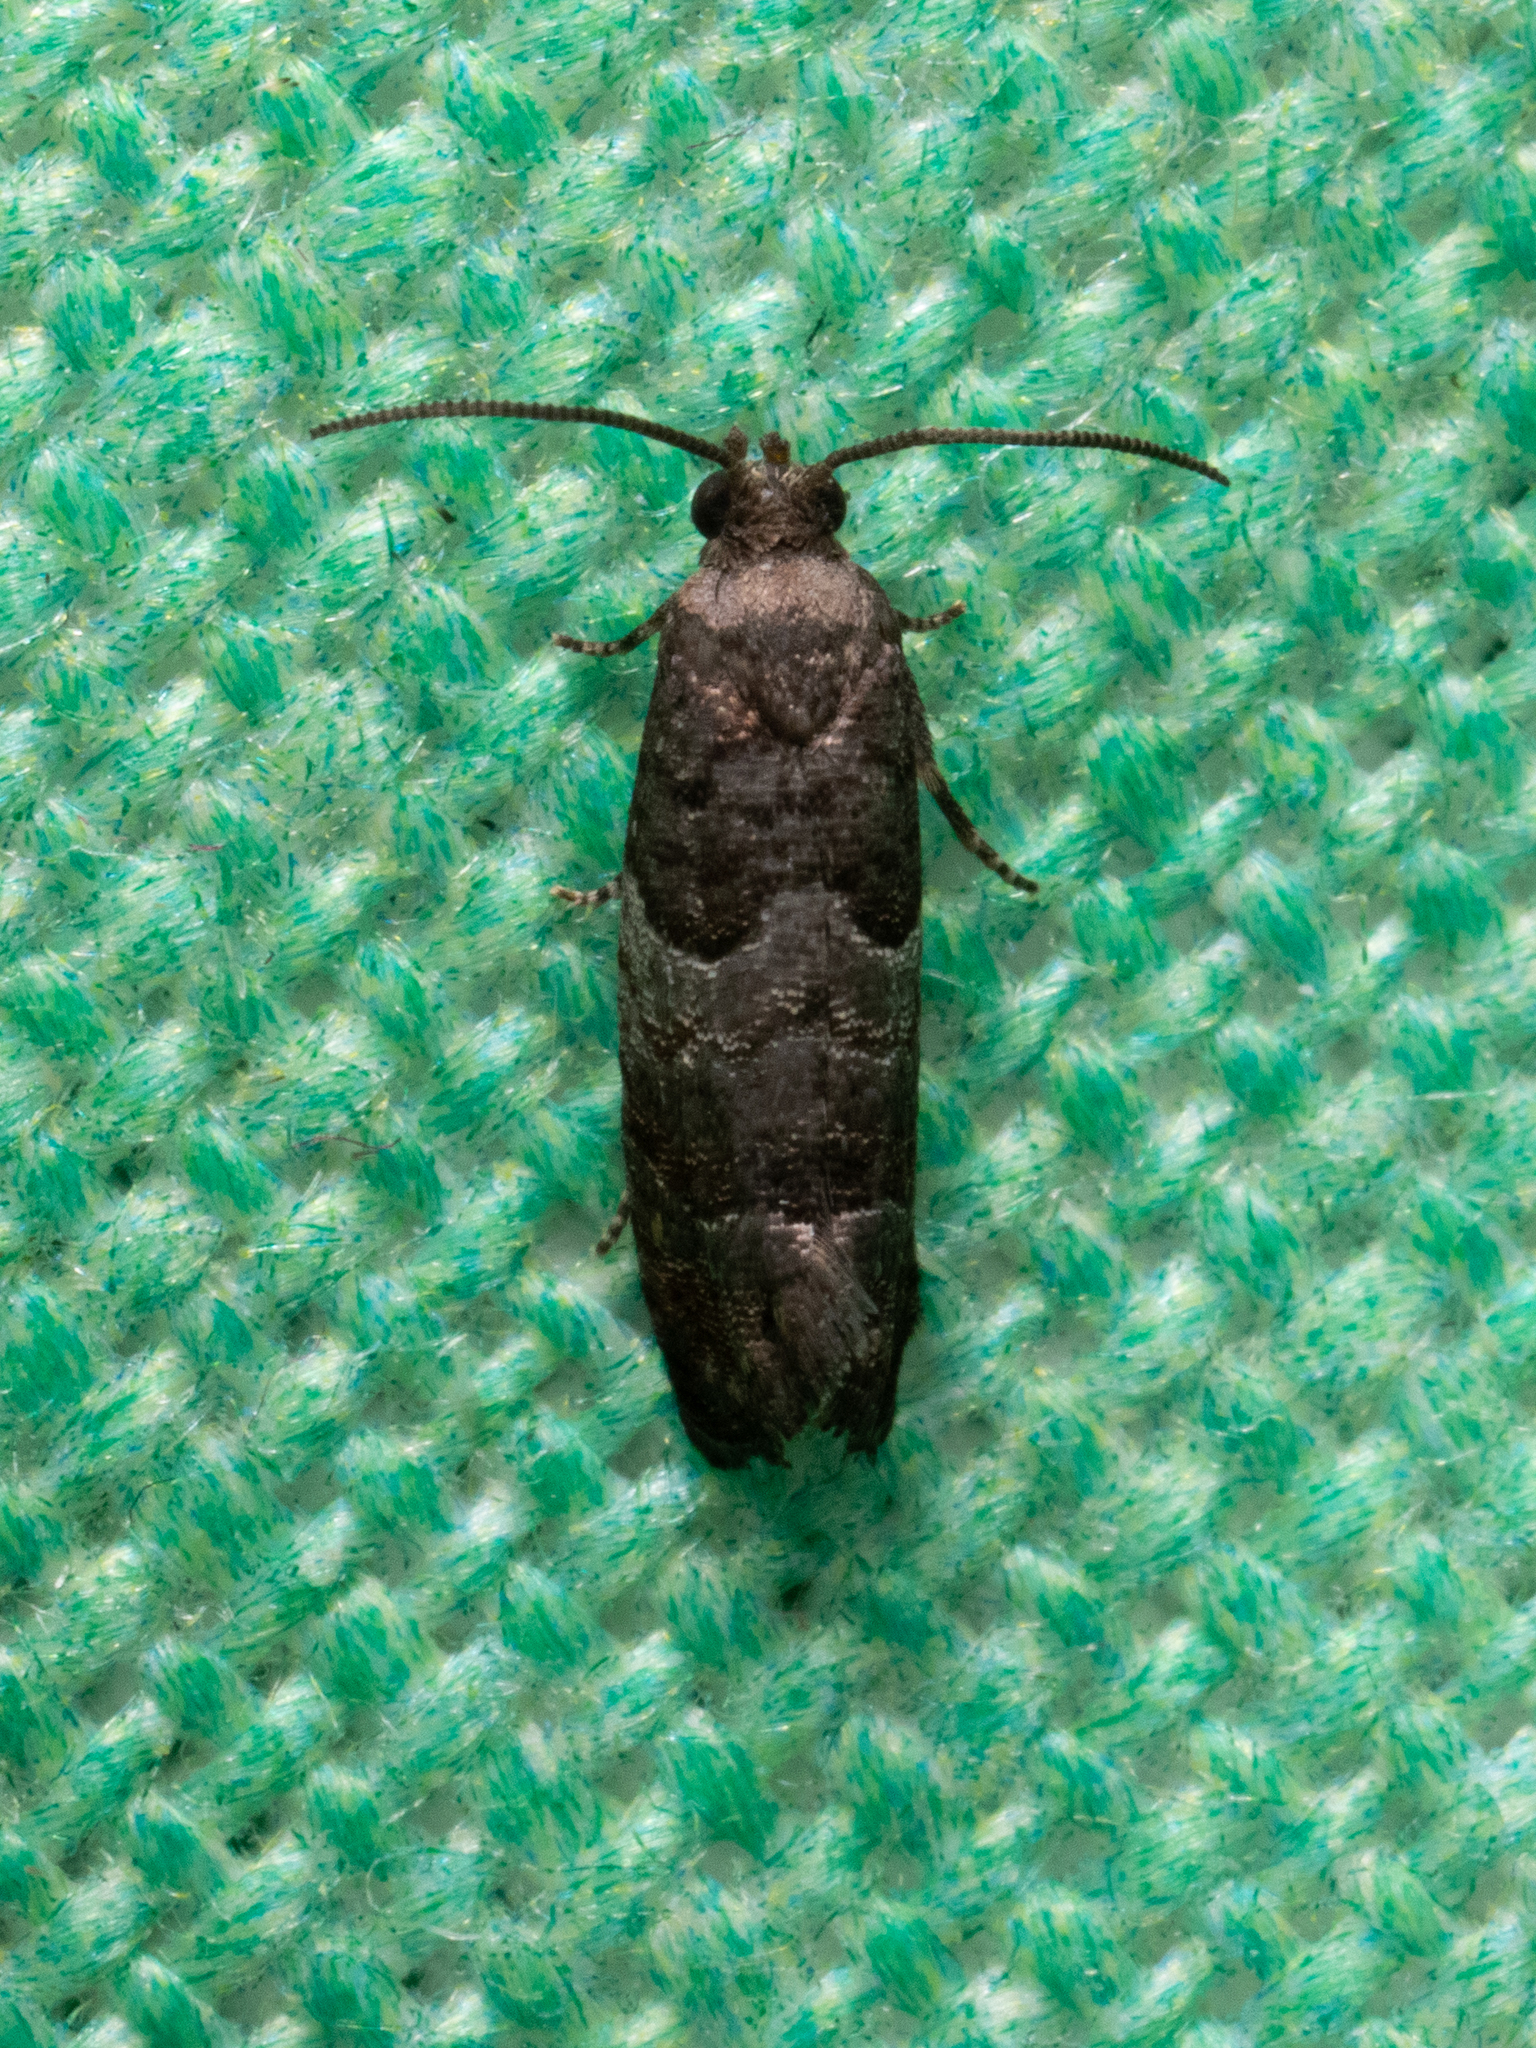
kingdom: Animalia
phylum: Arthropoda
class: Insecta
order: Lepidoptera
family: Tortricidae
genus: Larisa
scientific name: Larisa subsolana
